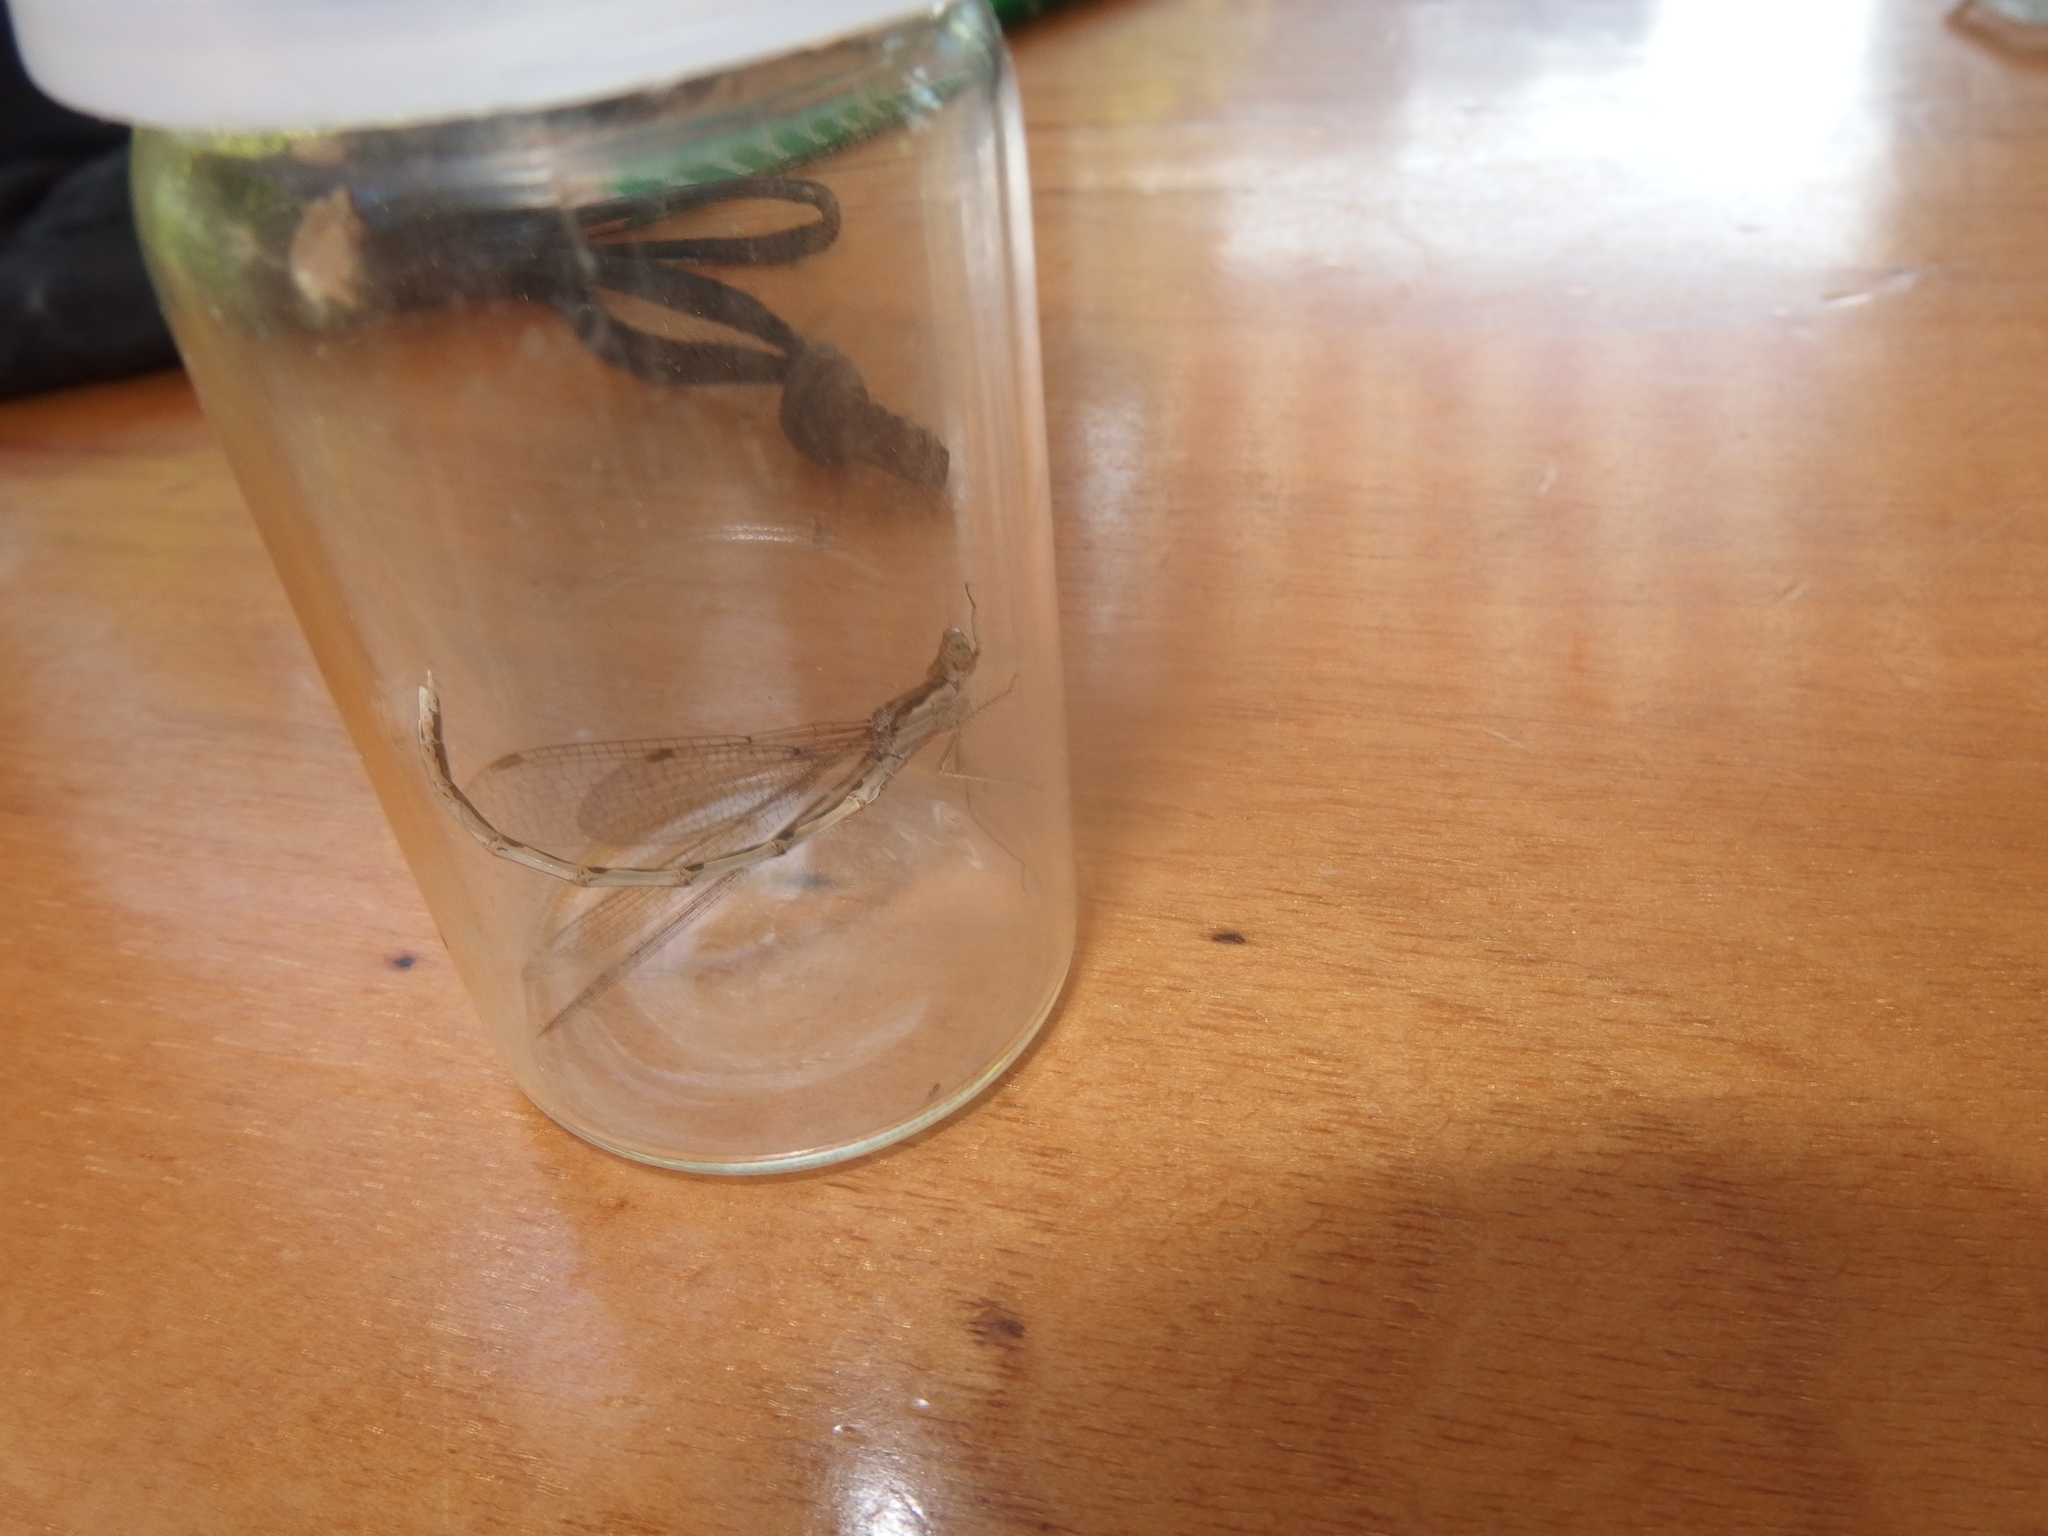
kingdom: Animalia
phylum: Arthropoda
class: Insecta
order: Odonata
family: Lestidae
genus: Sympecma
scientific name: Sympecma fusca
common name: Common winter damsel
